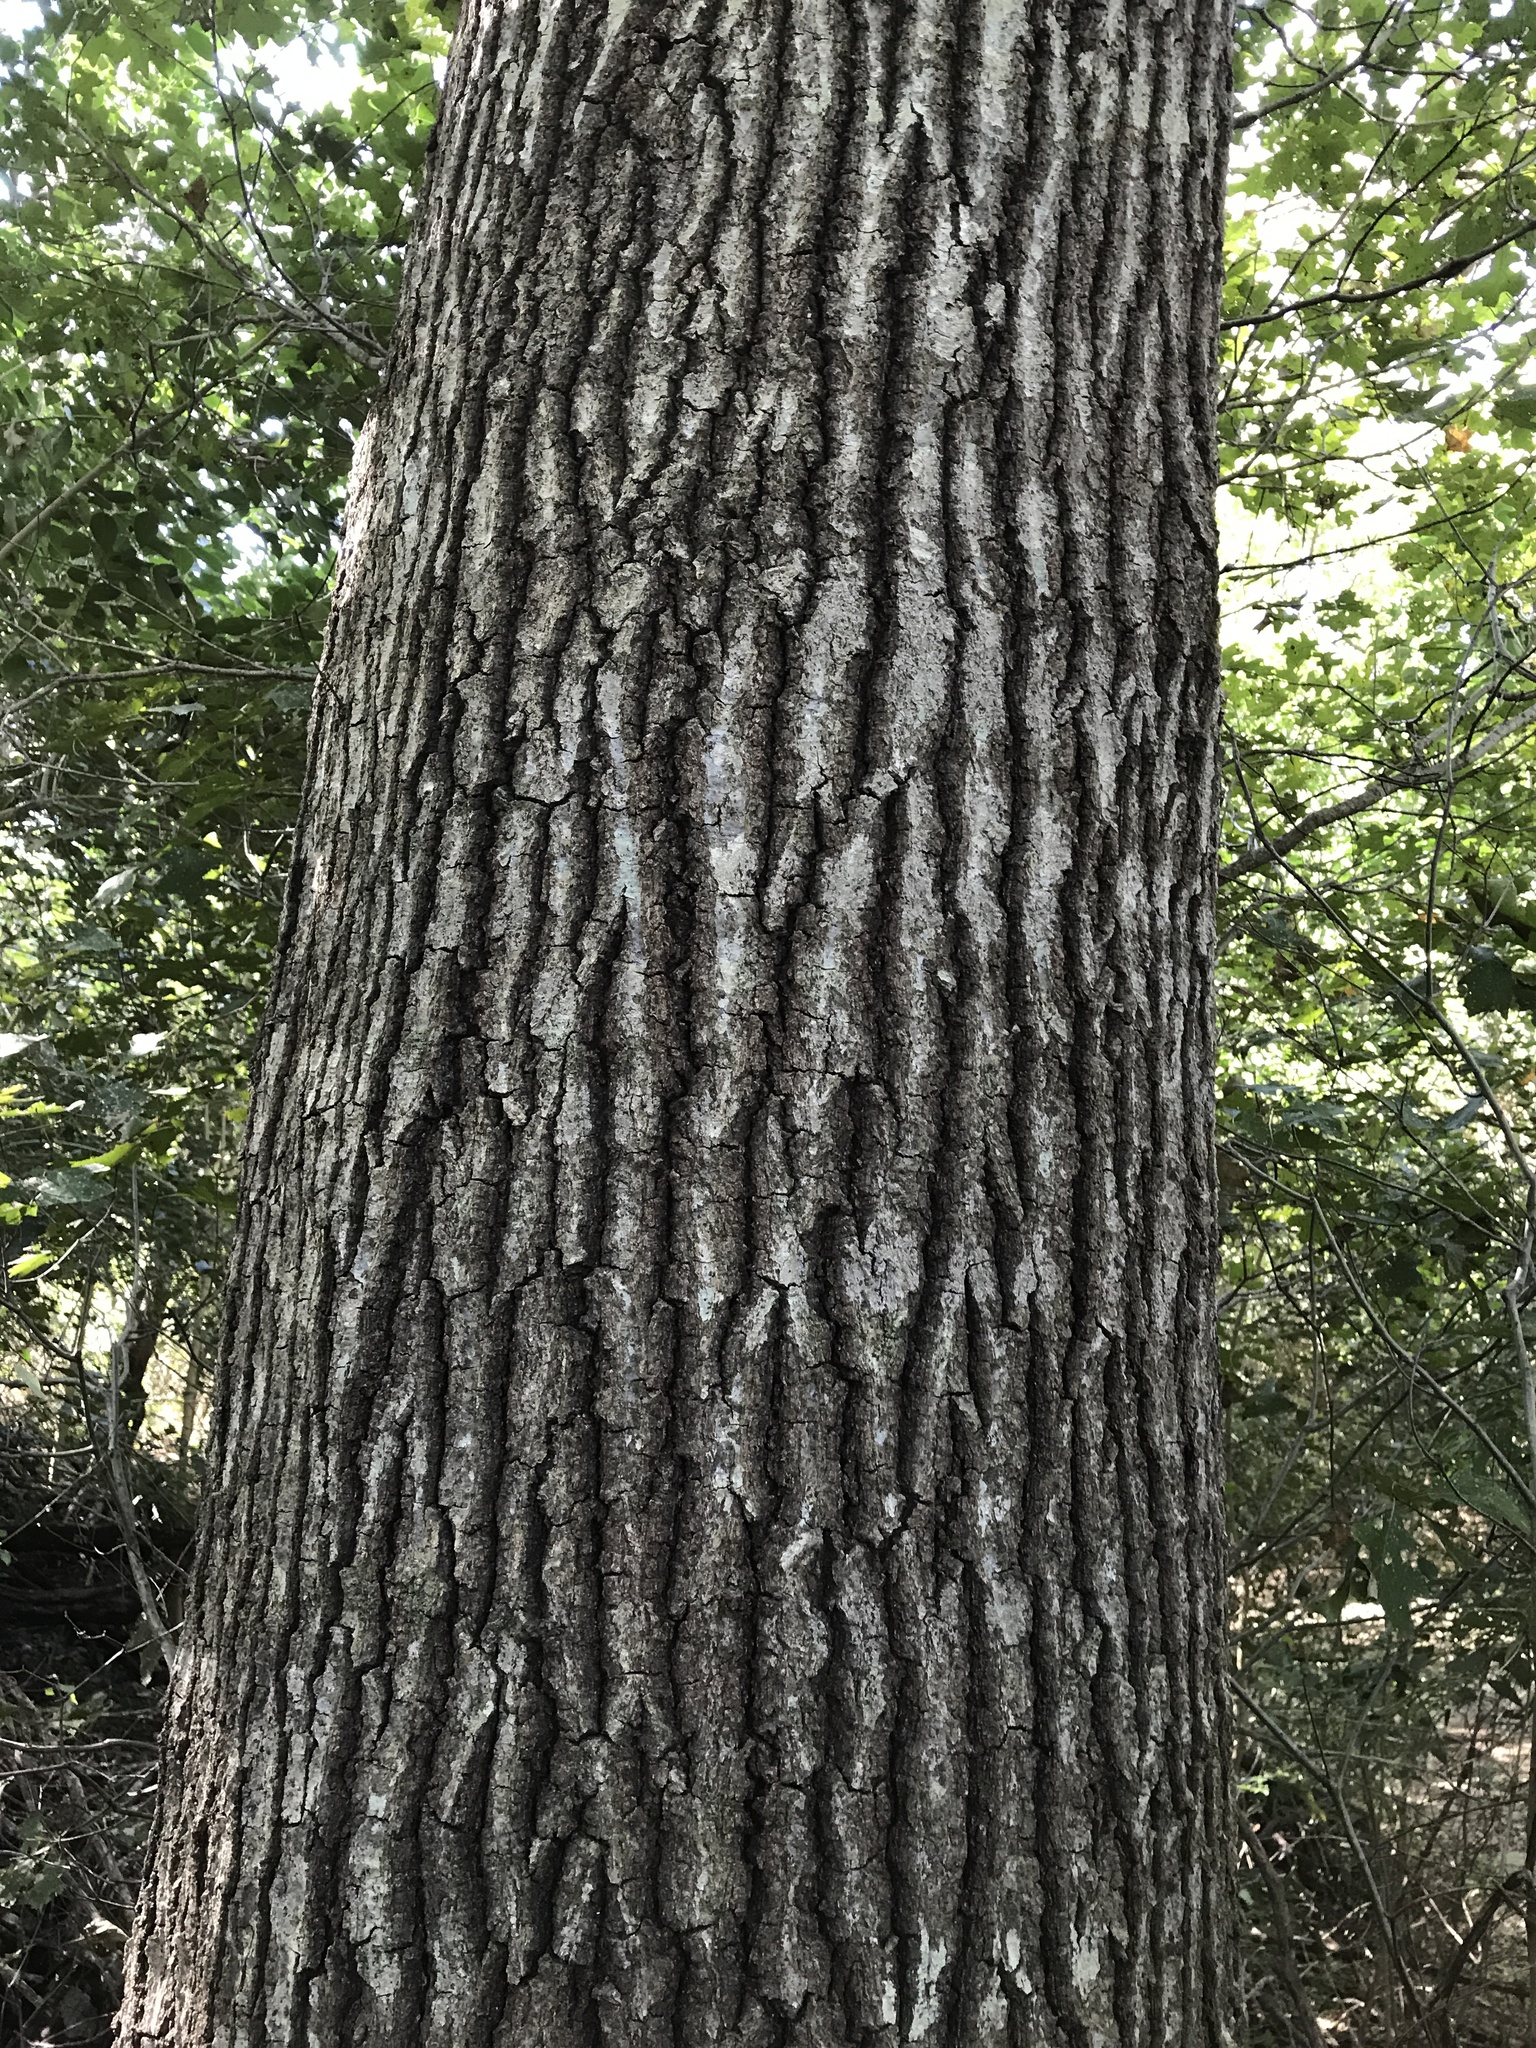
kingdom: Plantae
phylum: Tracheophyta
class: Magnoliopsida
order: Fagales
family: Fagaceae
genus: Quercus
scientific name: Quercus shumardii
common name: Shumard oak
